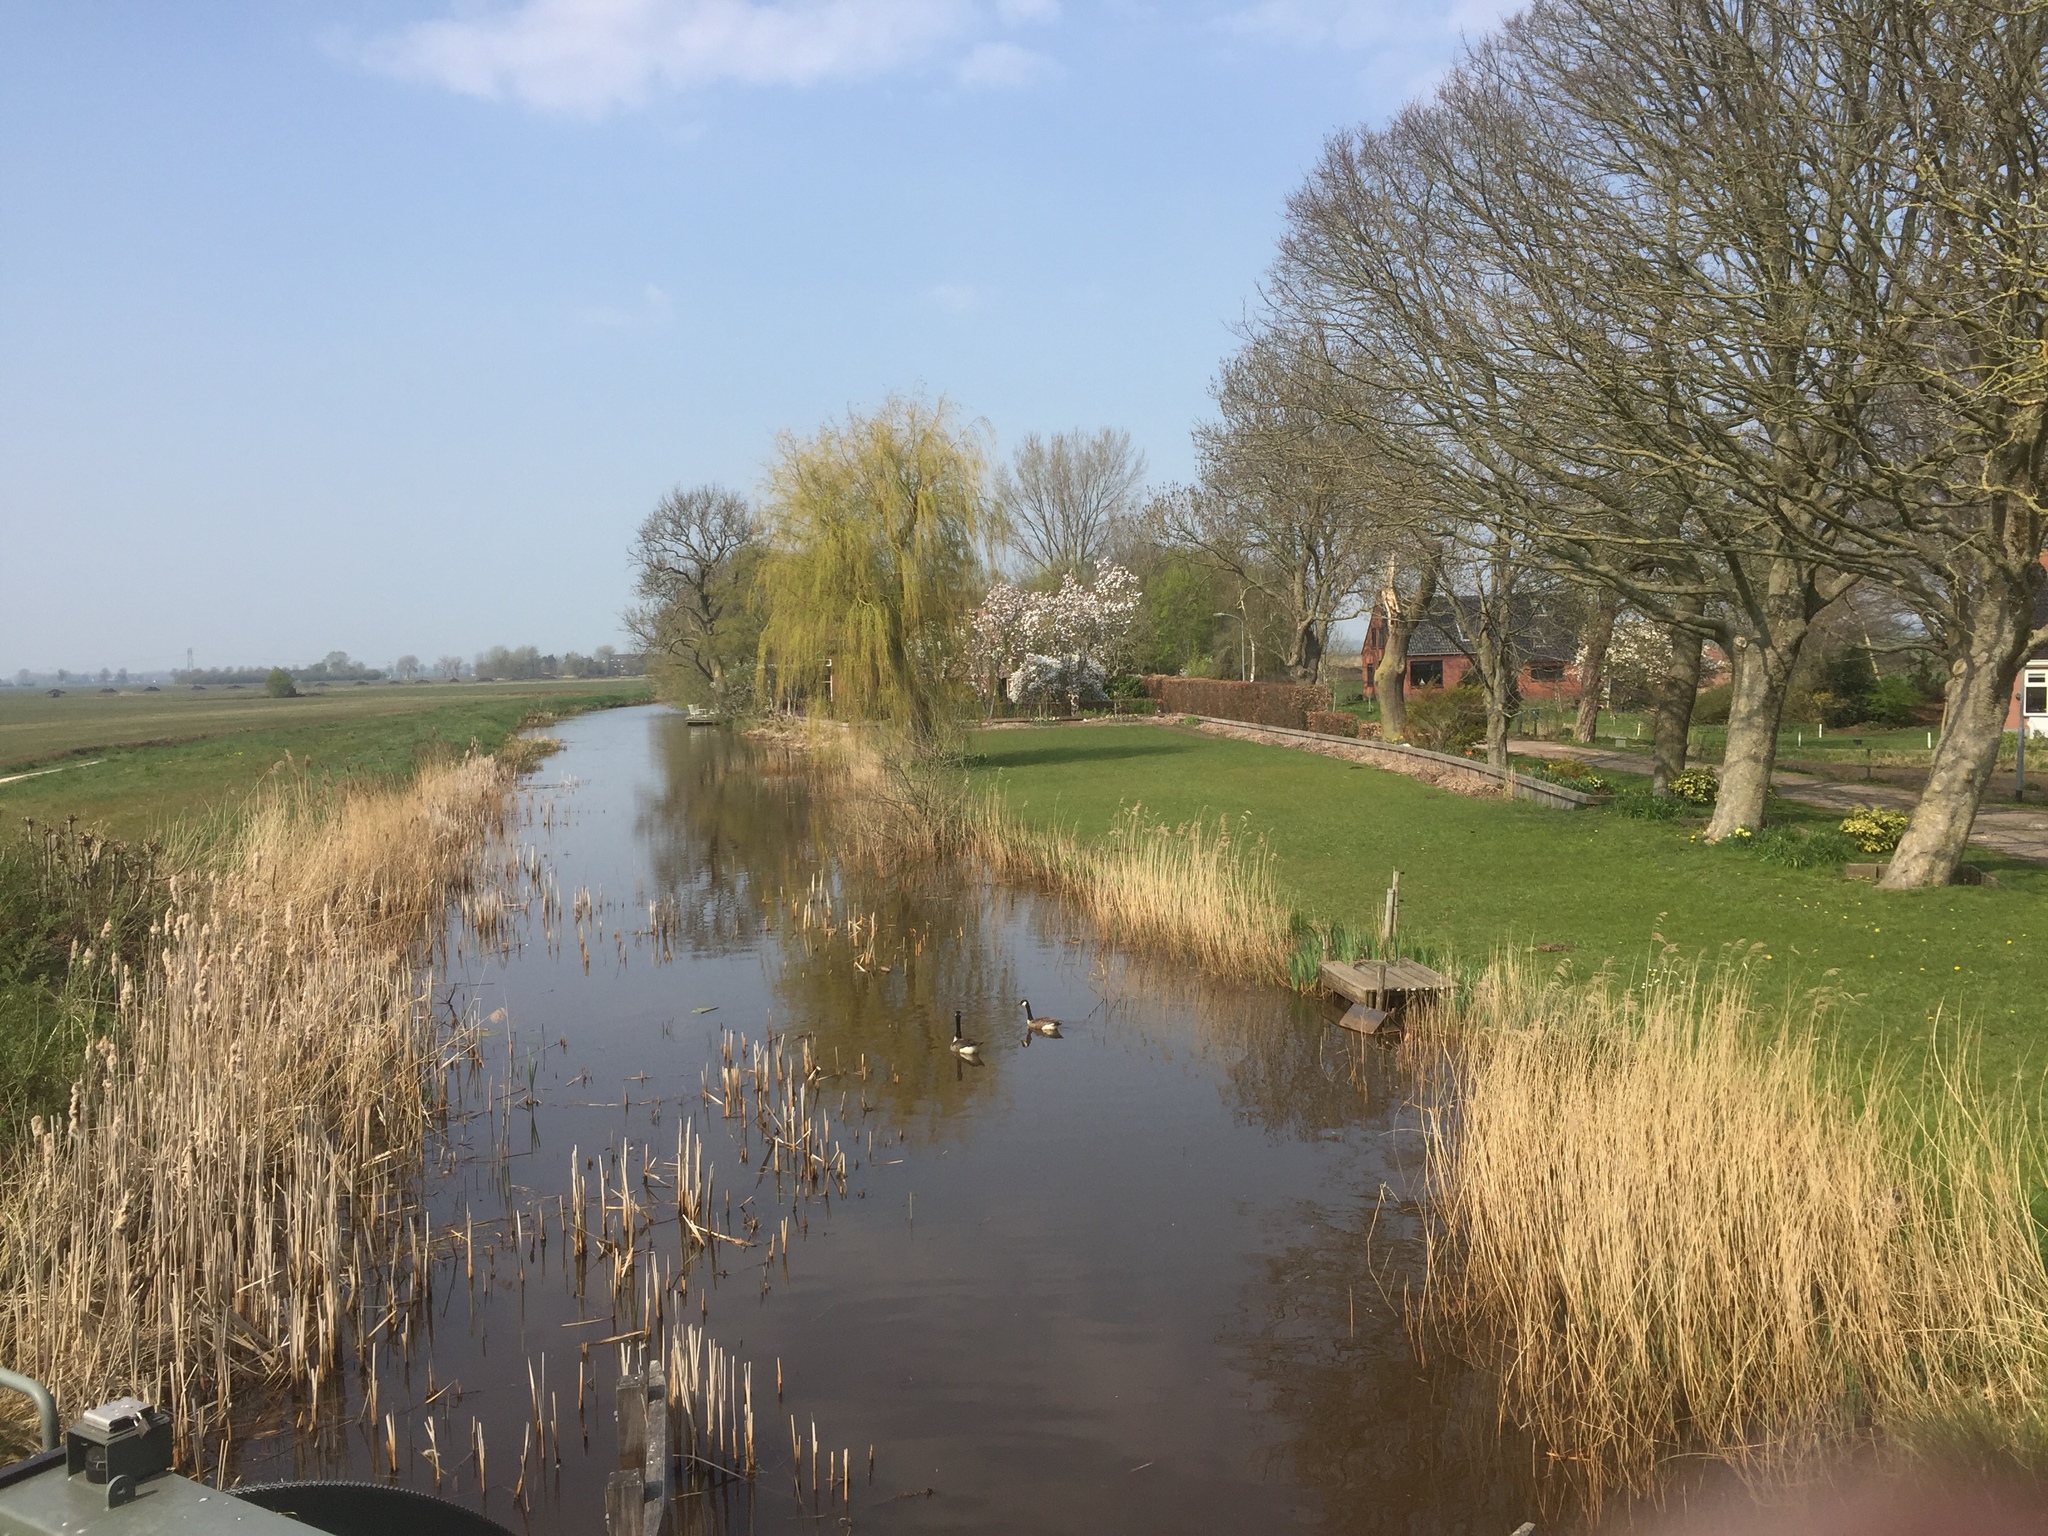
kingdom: Animalia
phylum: Chordata
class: Aves
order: Anseriformes
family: Anatidae
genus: Branta
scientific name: Branta canadensis
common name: Canada goose
